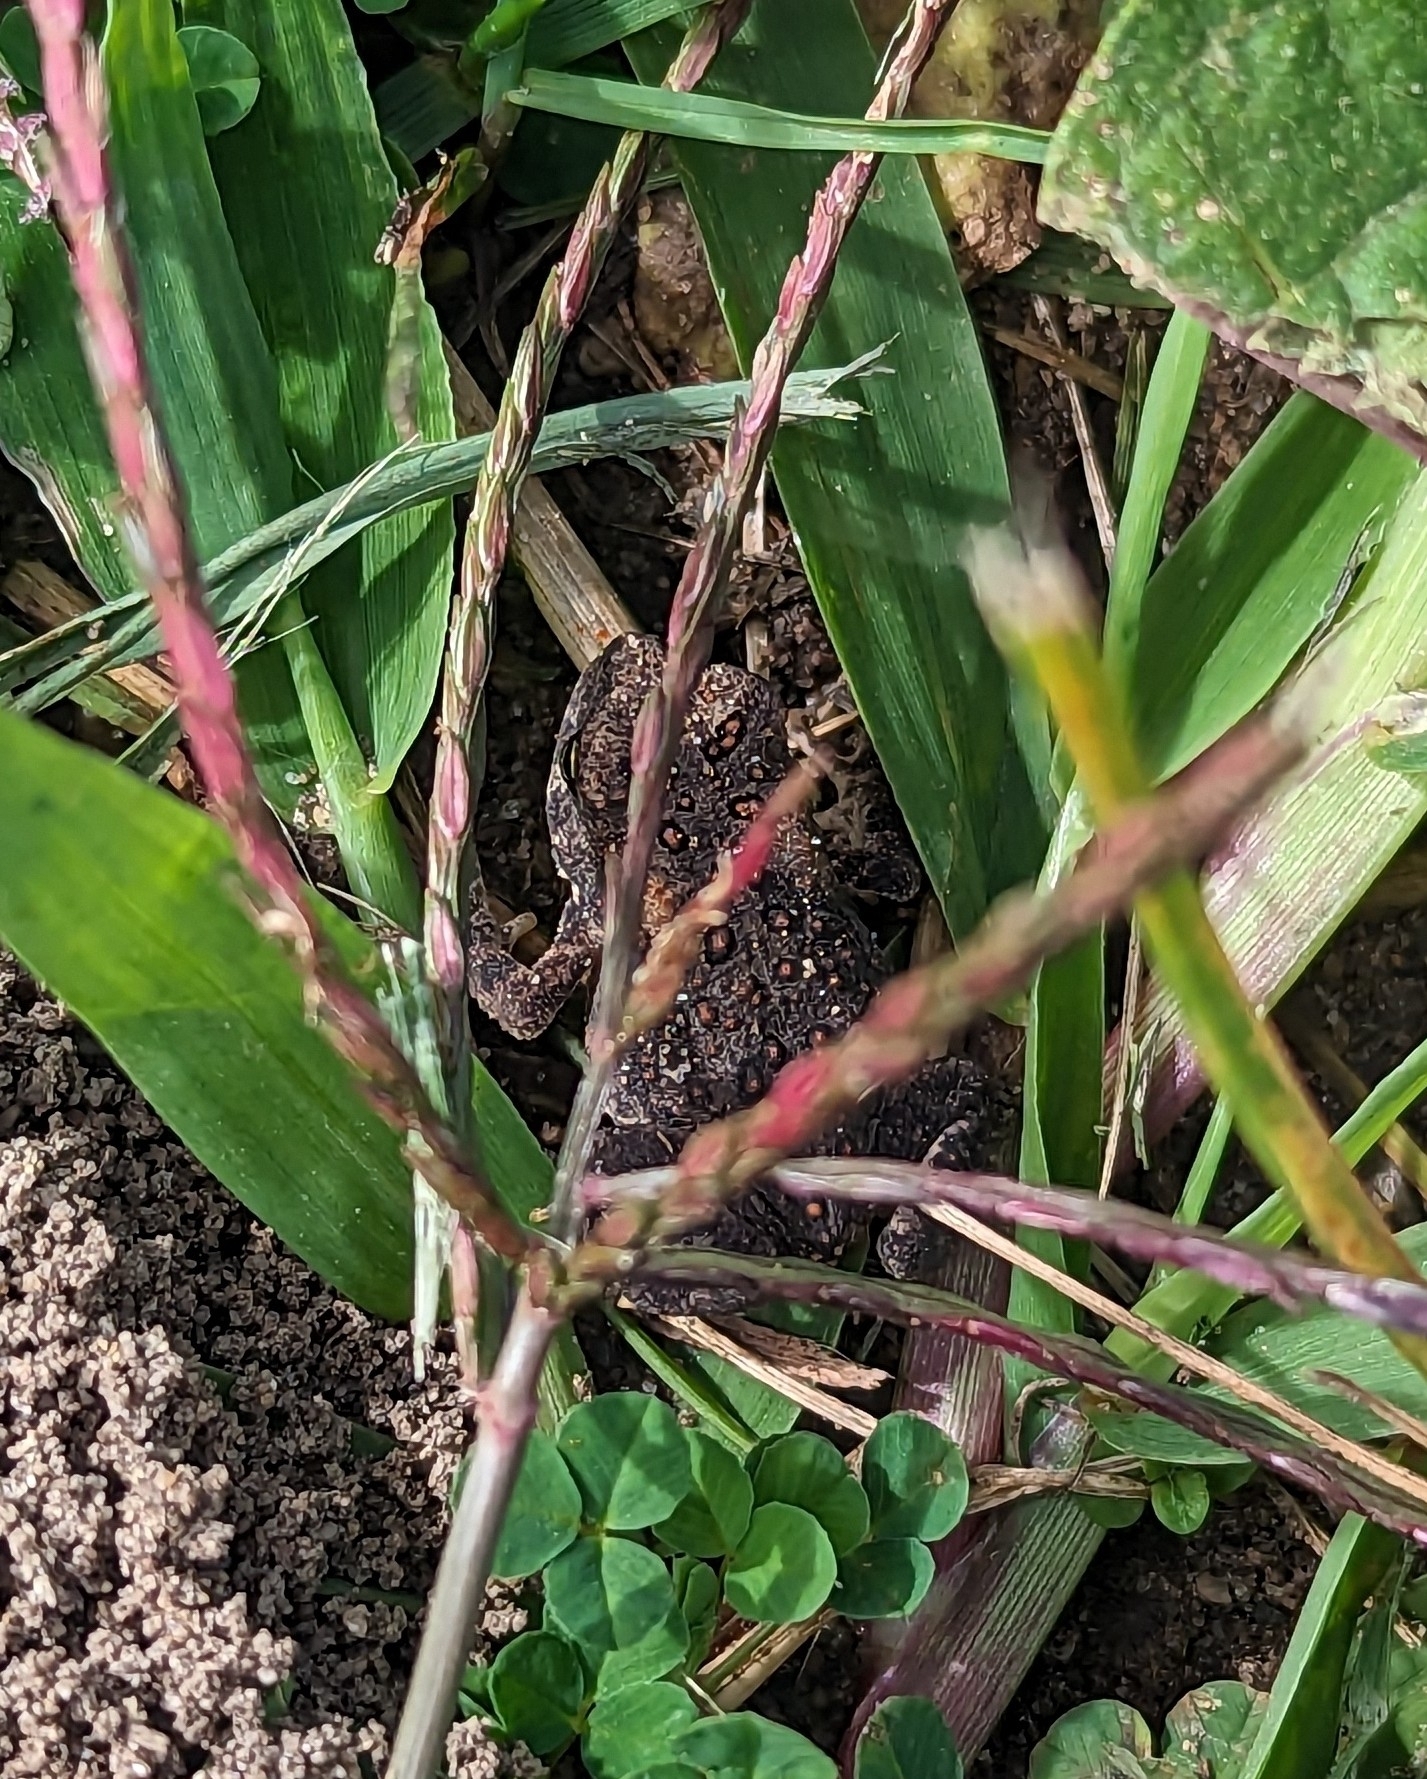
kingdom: Animalia
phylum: Chordata
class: Amphibia
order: Anura
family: Bufonidae
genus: Anaxyrus
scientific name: Anaxyrus americanus
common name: American toad
